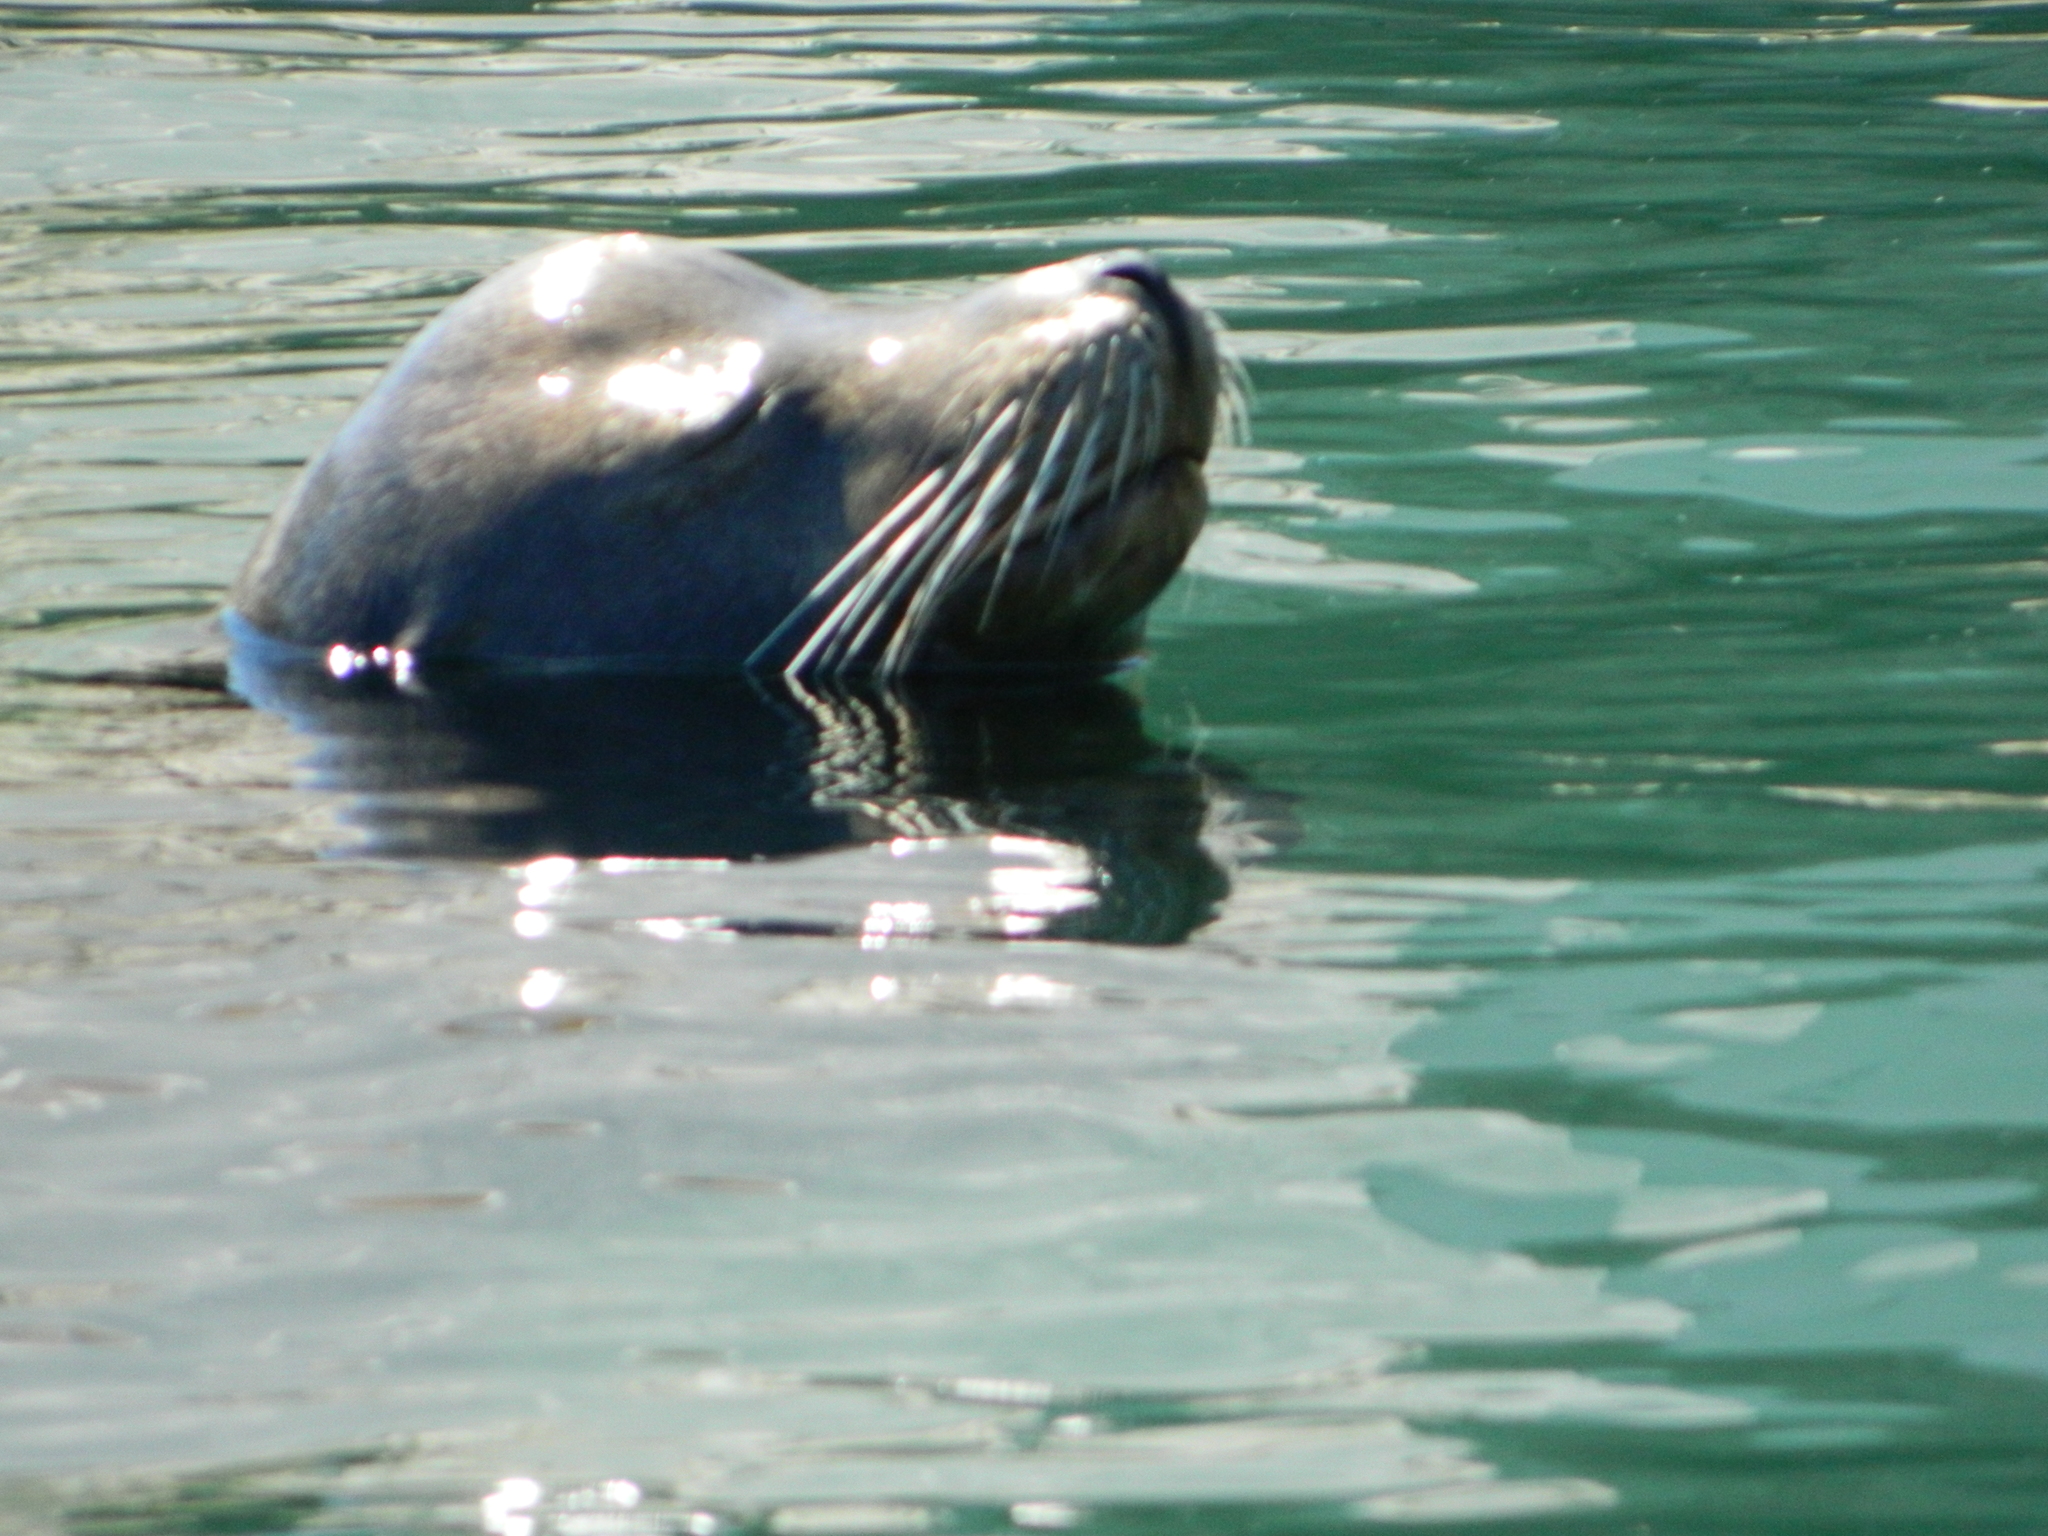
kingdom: Animalia
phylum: Chordata
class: Mammalia
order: Carnivora
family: Otariidae
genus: Zalophus
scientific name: Zalophus californianus
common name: California sea lion
